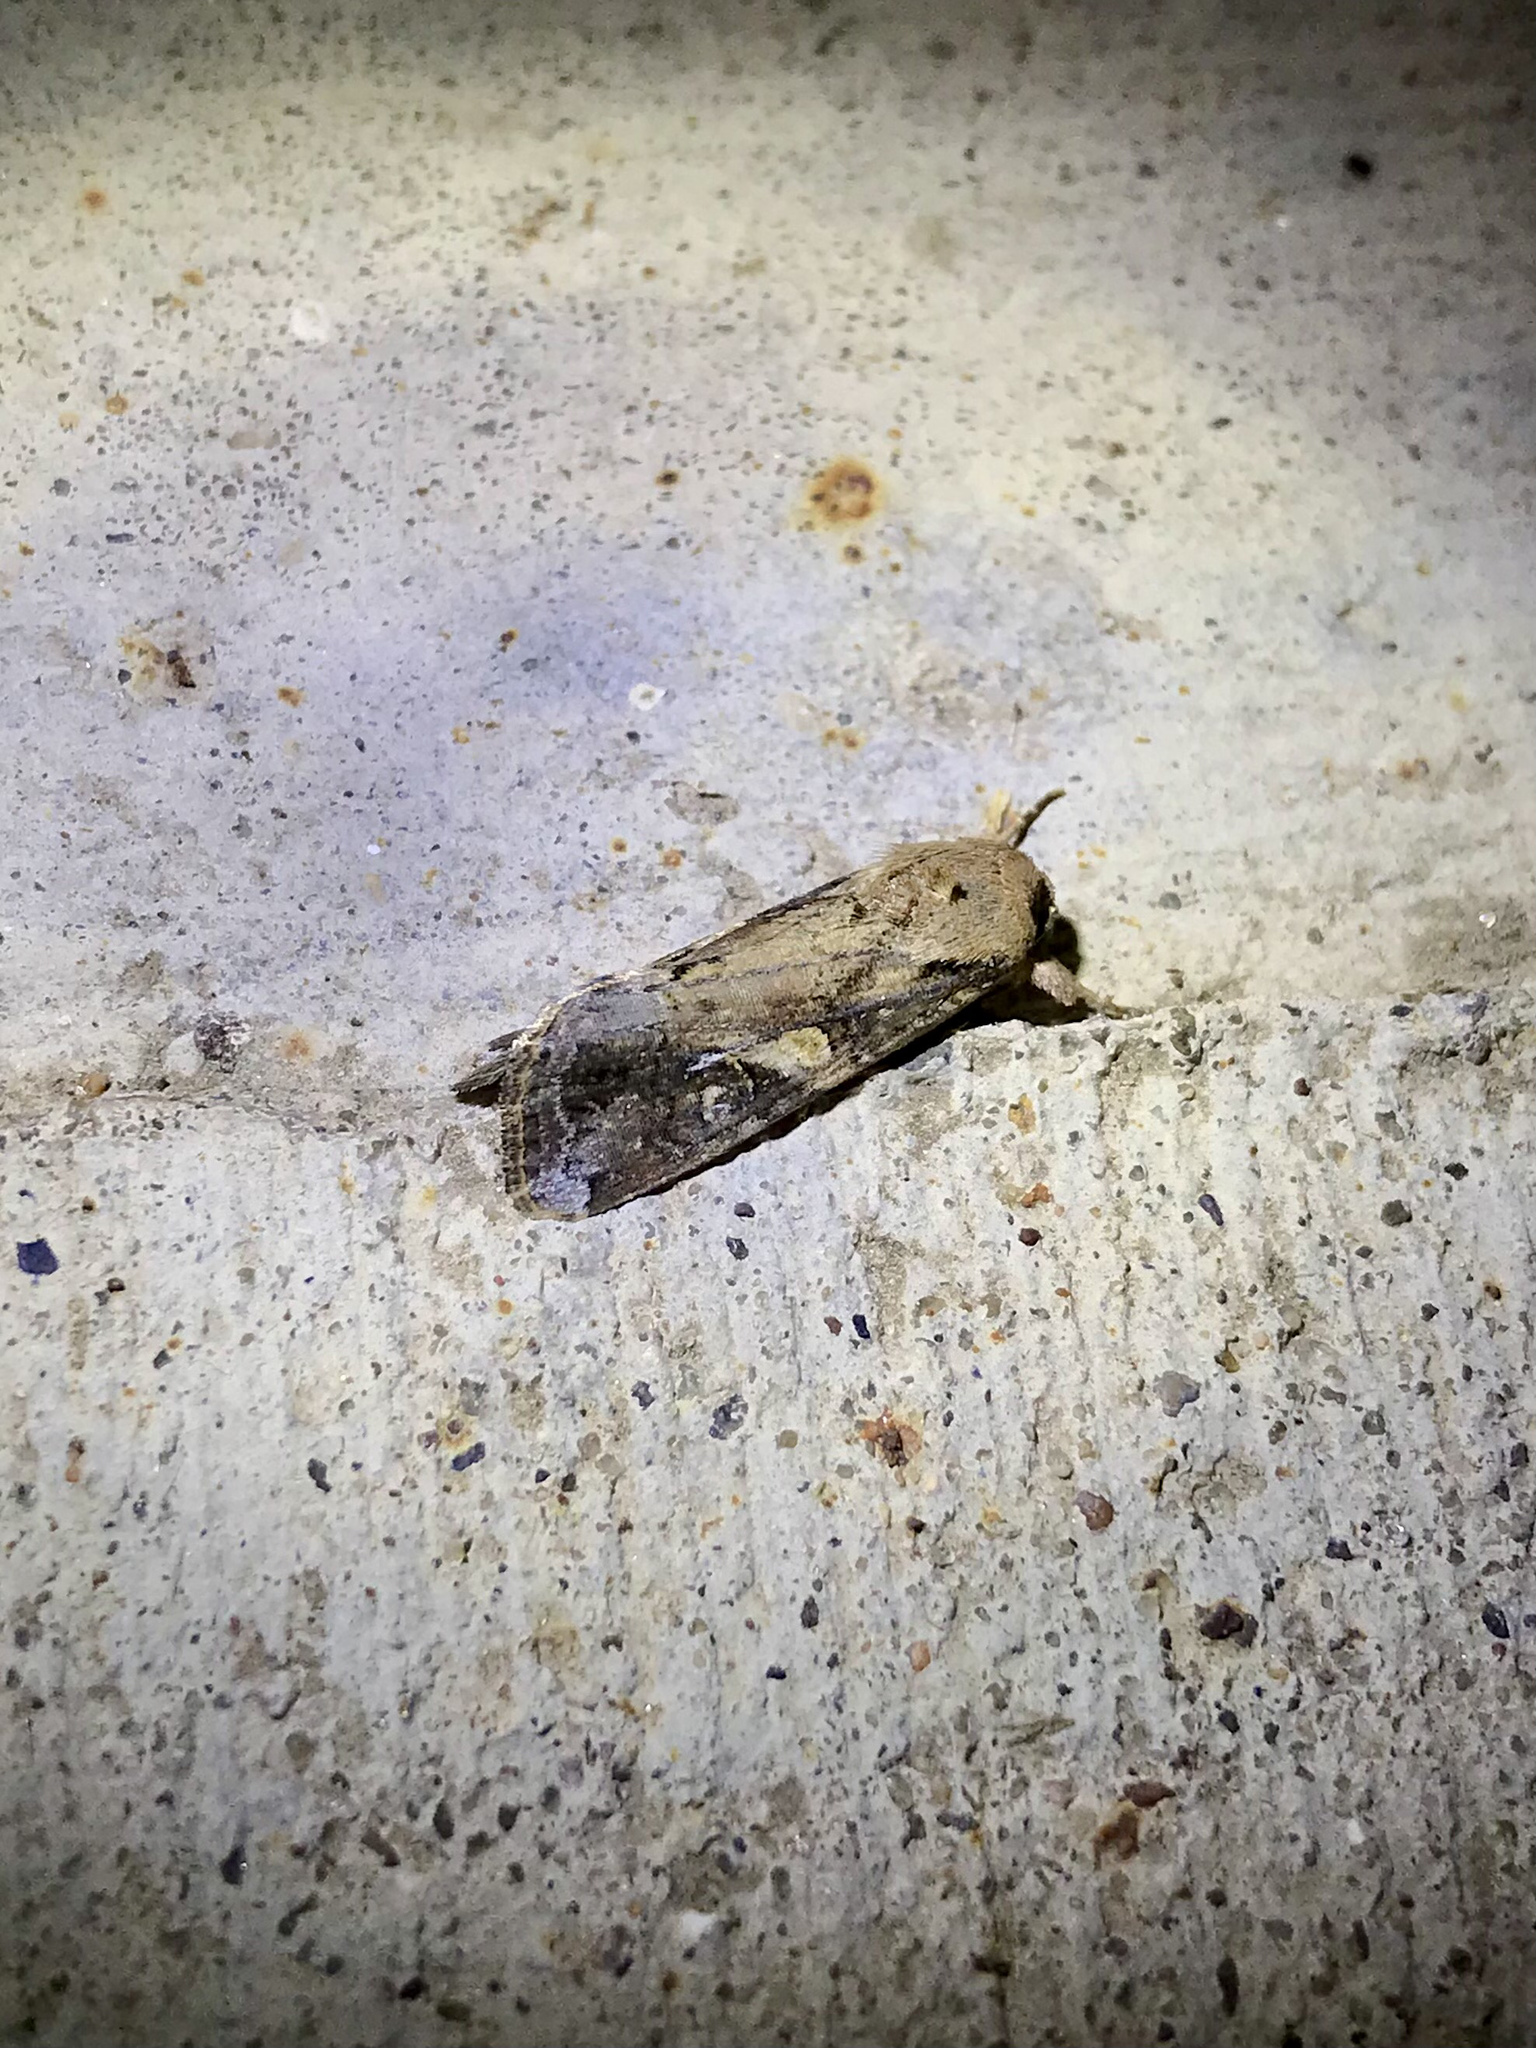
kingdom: Animalia
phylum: Arthropoda
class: Insecta
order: Lepidoptera
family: Noctuidae
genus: Spodoptera
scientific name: Spodoptera frugiperda
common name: Fall armyworm
